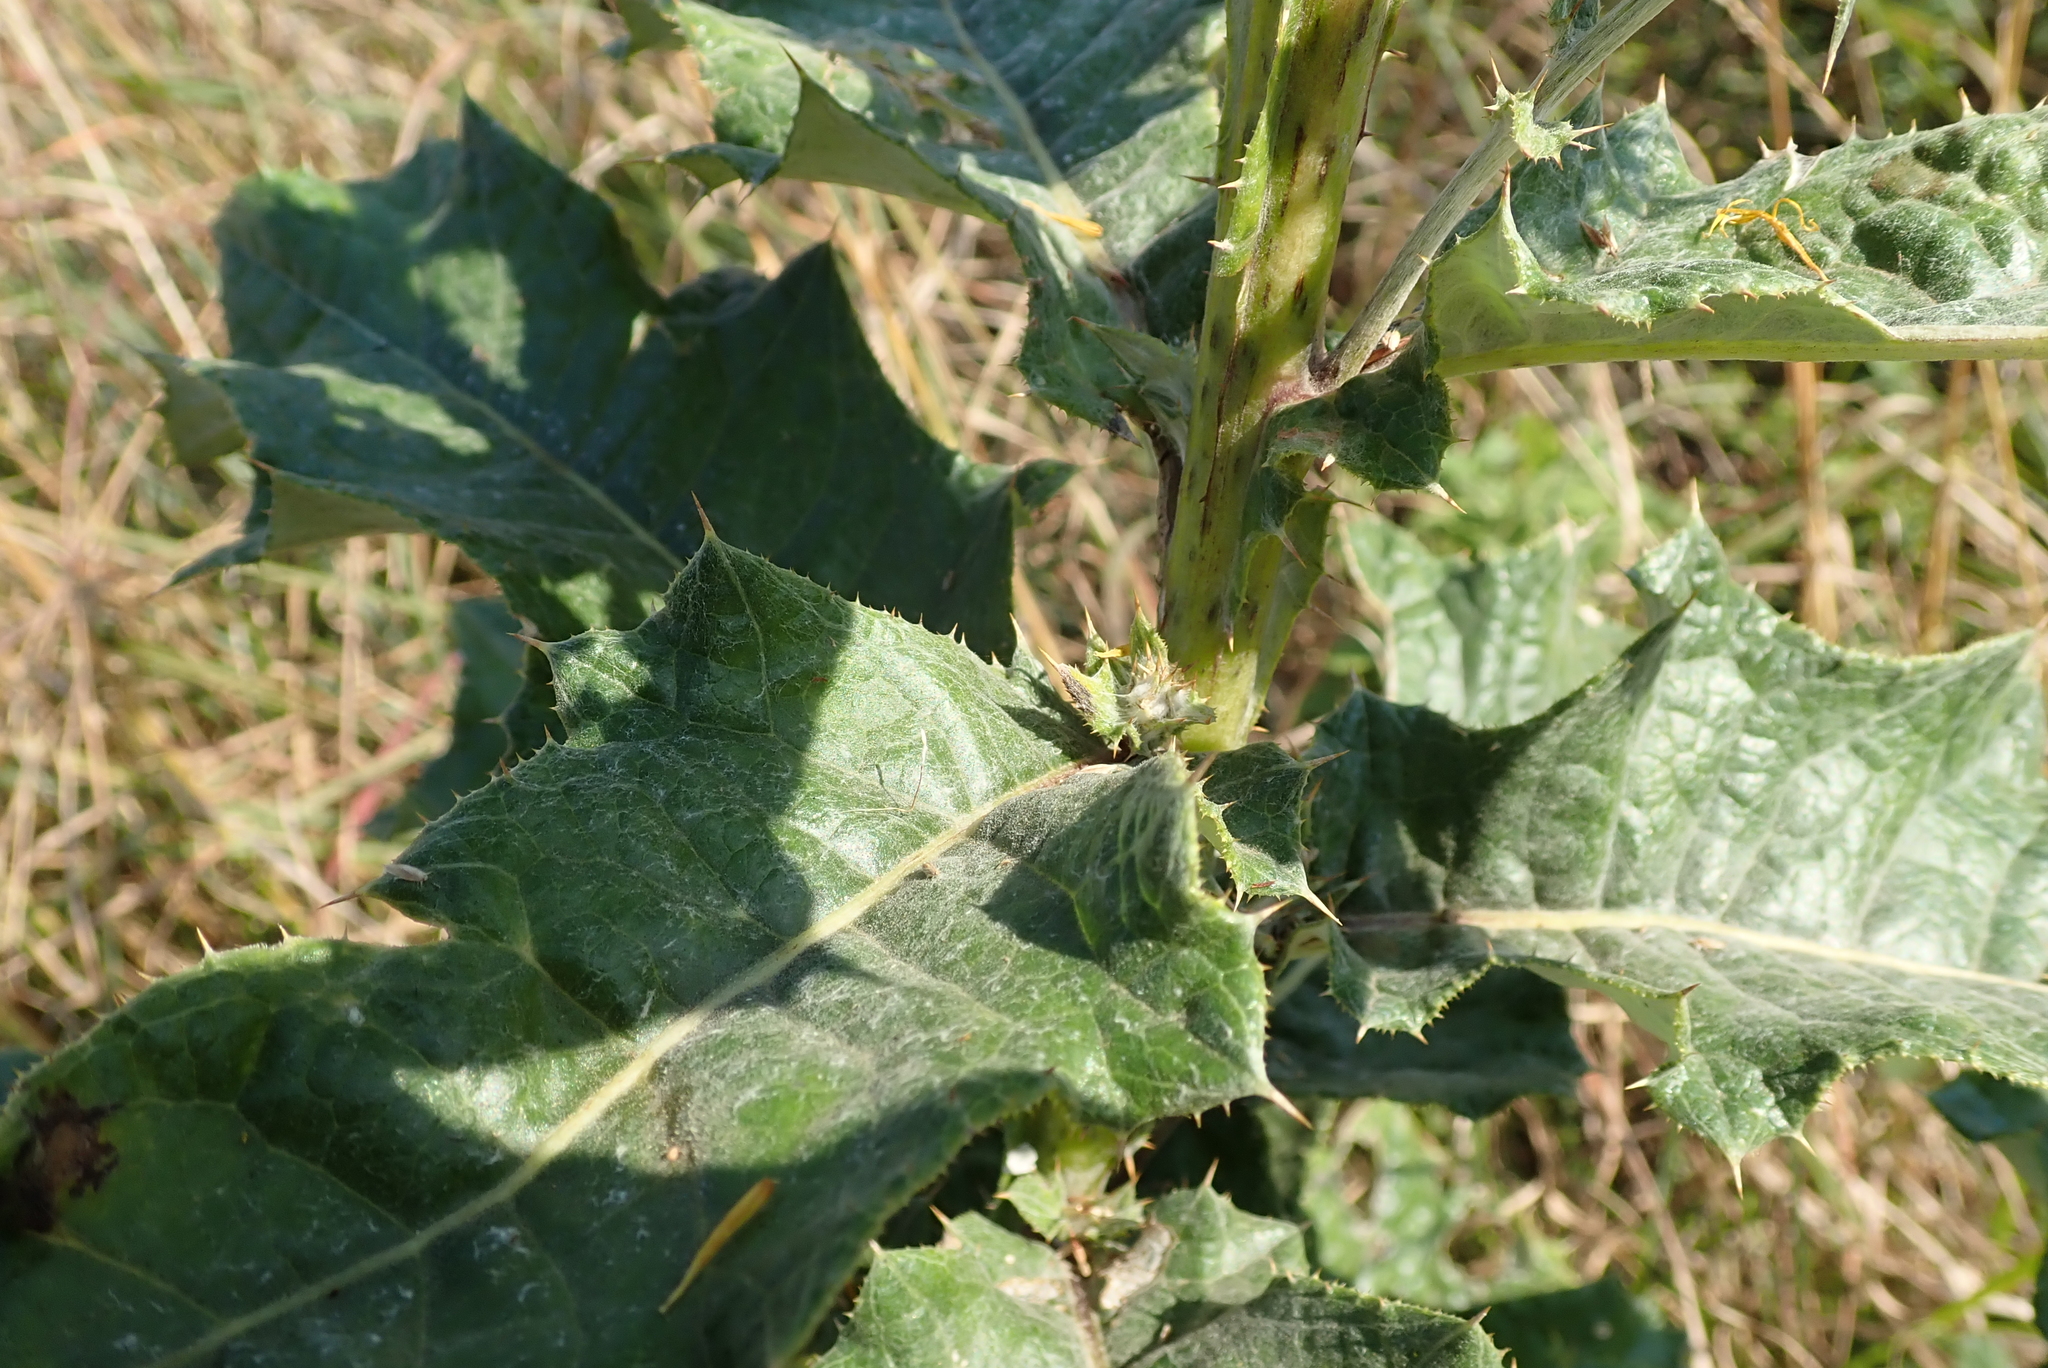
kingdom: Plantae
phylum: Tracheophyta
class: Magnoliopsida
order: Asterales
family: Asteraceae
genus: Berkheya
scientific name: Berkheya maritima
